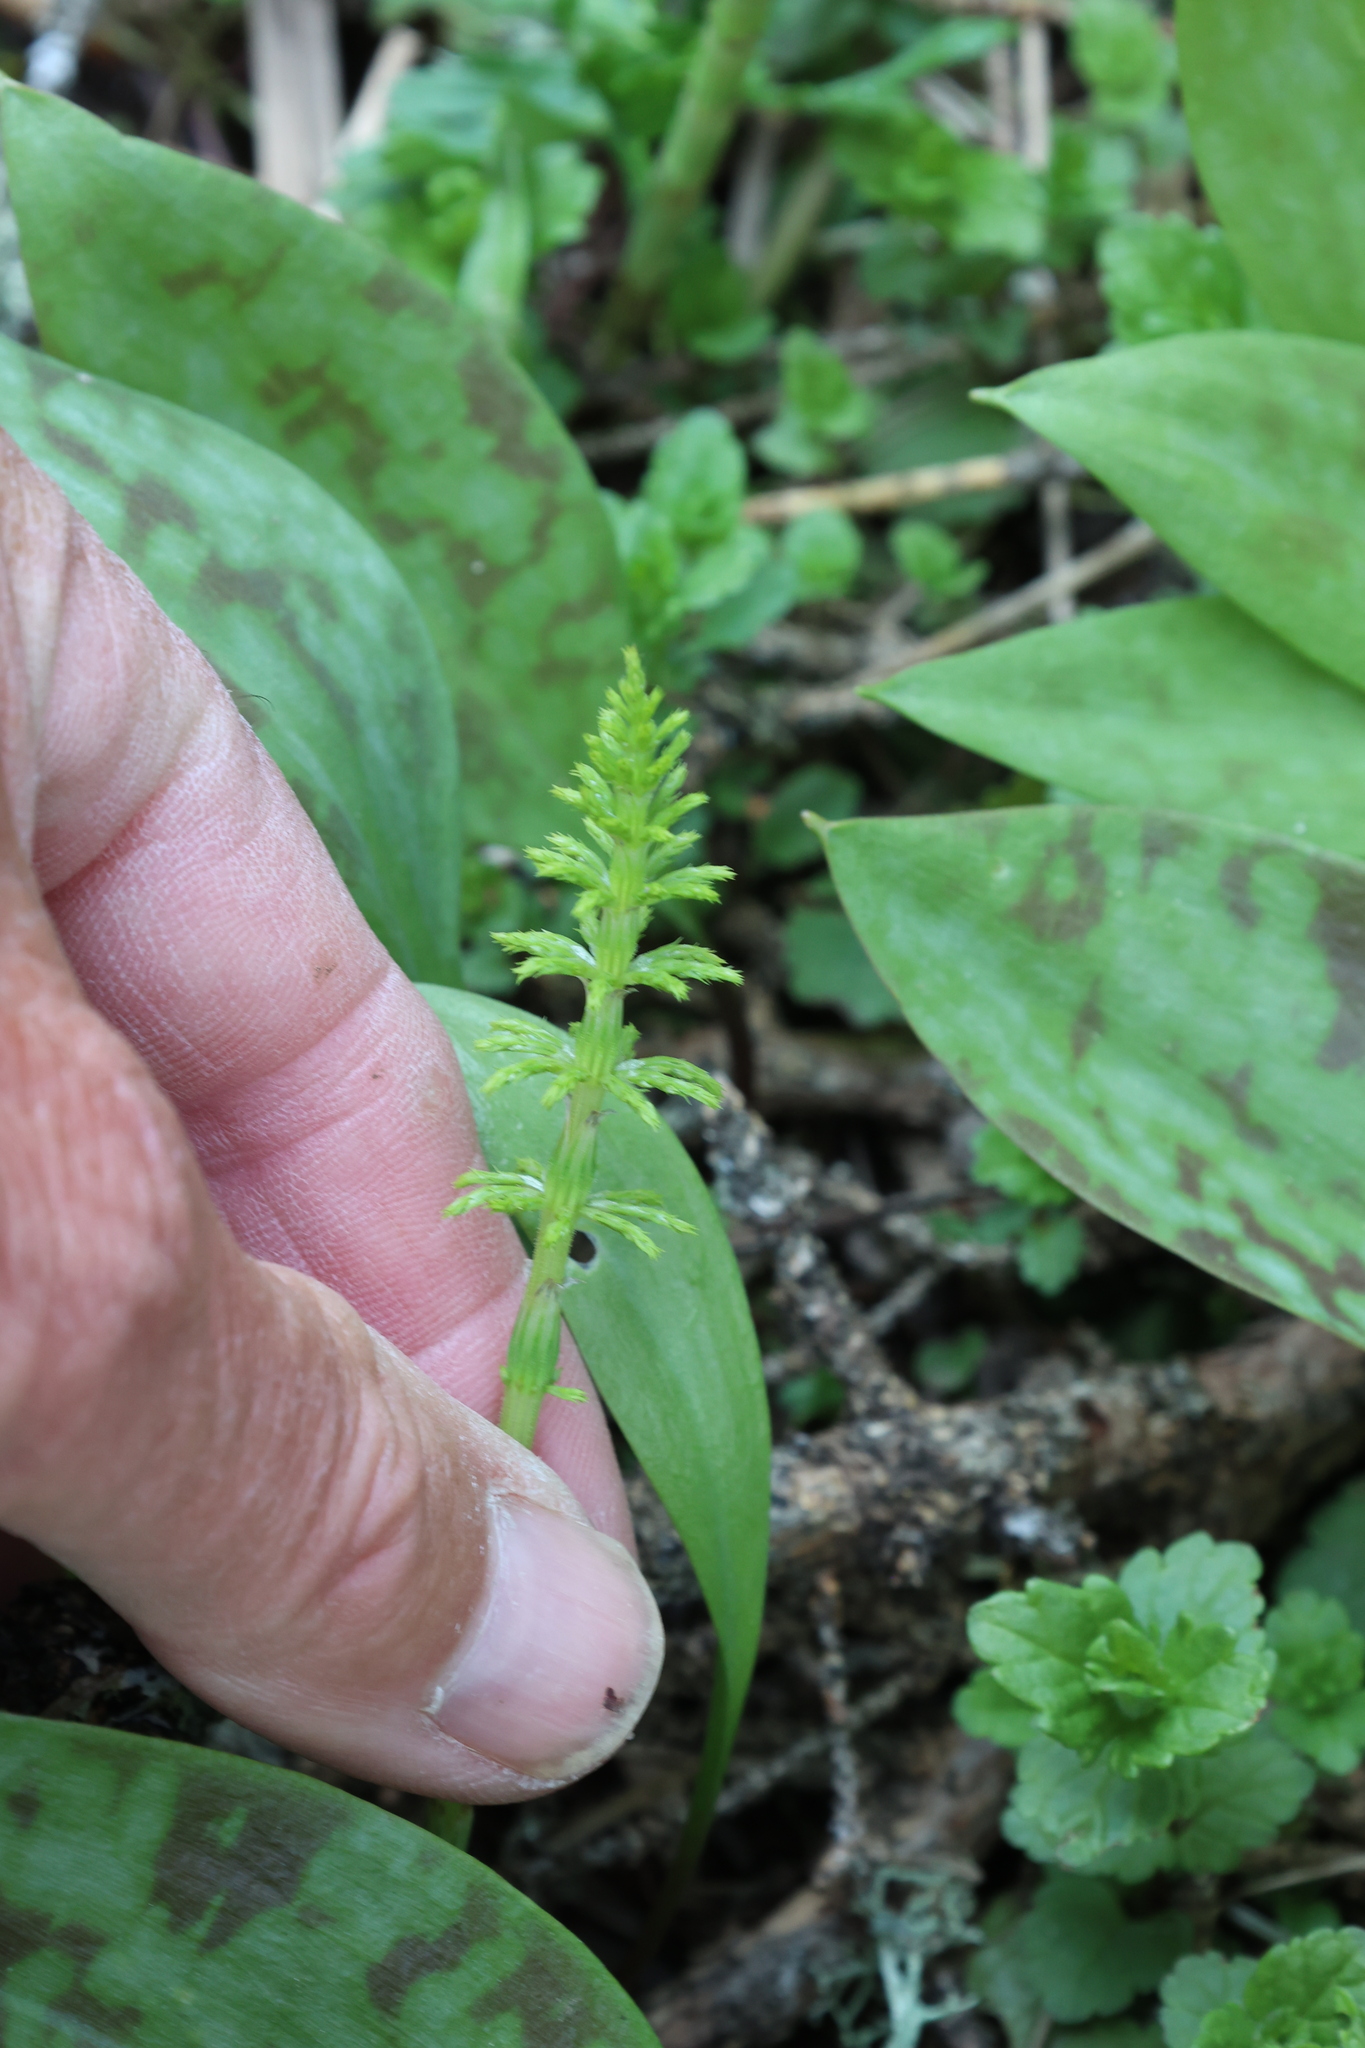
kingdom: Plantae
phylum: Tracheophyta
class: Polypodiopsida
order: Equisetales
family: Equisetaceae
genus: Equisetum
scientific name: Equisetum sylvaticum
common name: Wood horsetail
